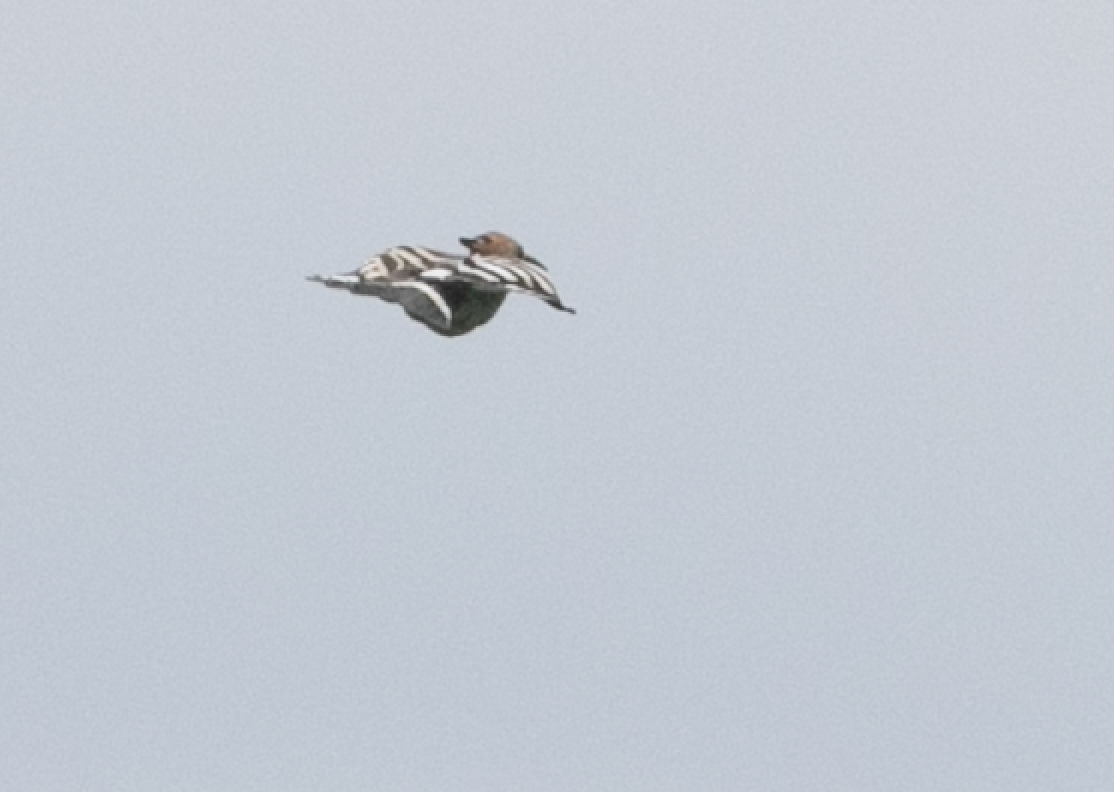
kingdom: Animalia
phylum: Chordata
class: Aves
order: Bucerotiformes
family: Upupidae
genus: Upupa
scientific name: Upupa epops
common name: Eurasian hoopoe
